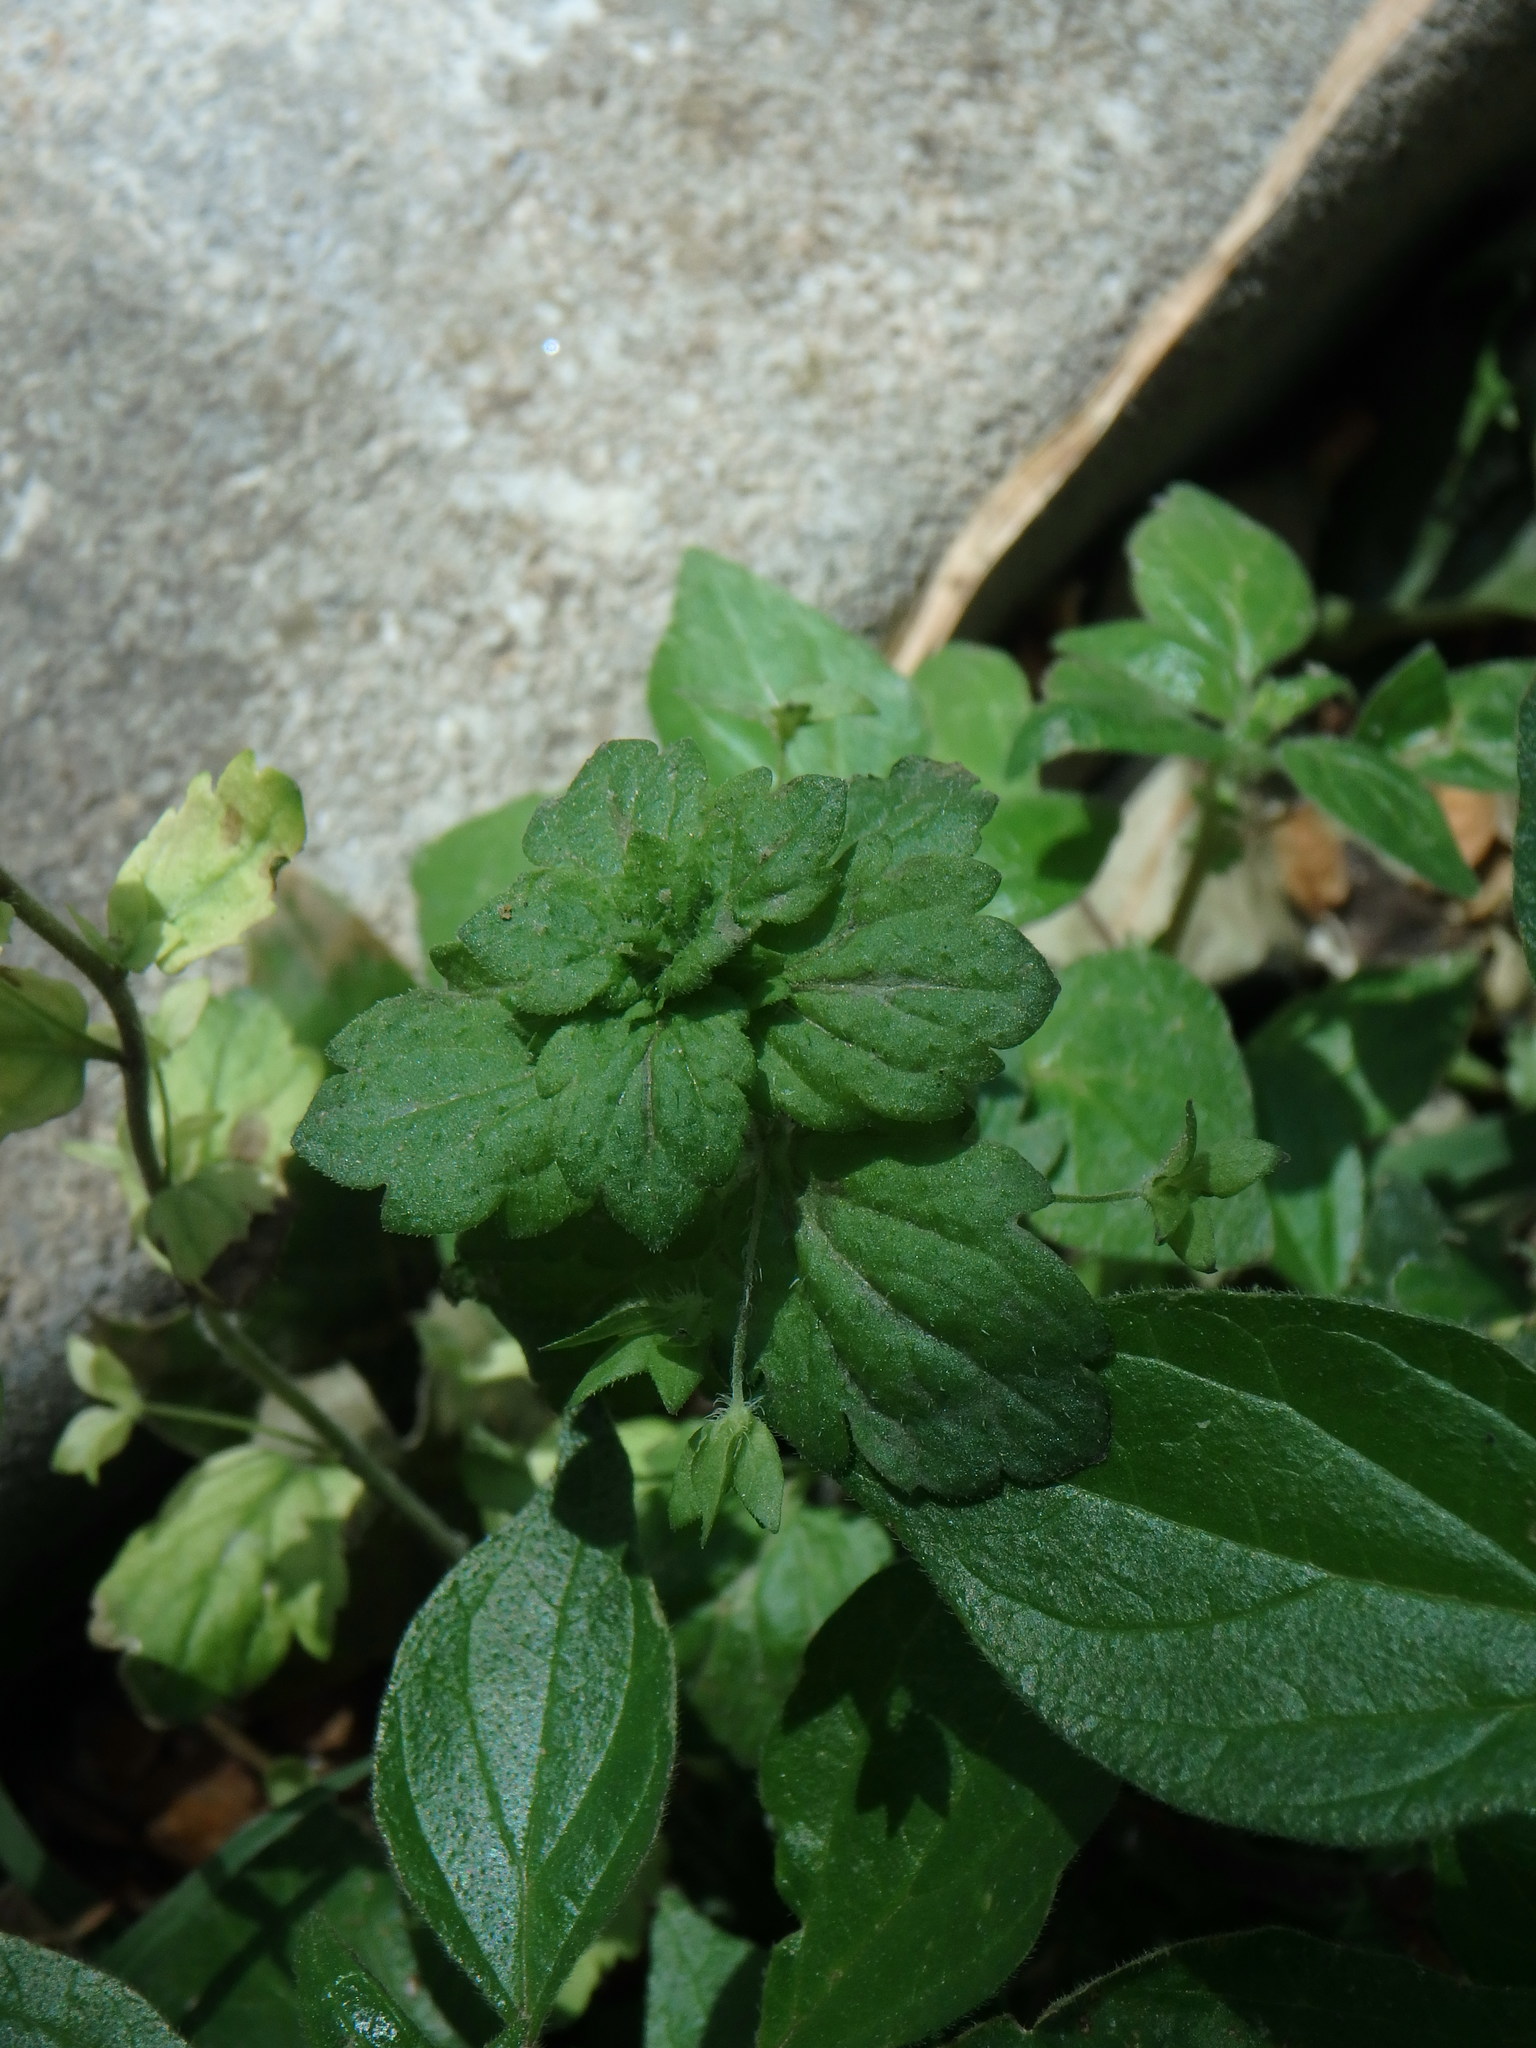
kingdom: Plantae
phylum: Tracheophyta
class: Magnoliopsida
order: Lamiales
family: Plantaginaceae
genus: Veronica
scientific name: Veronica persica
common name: Common field-speedwell
